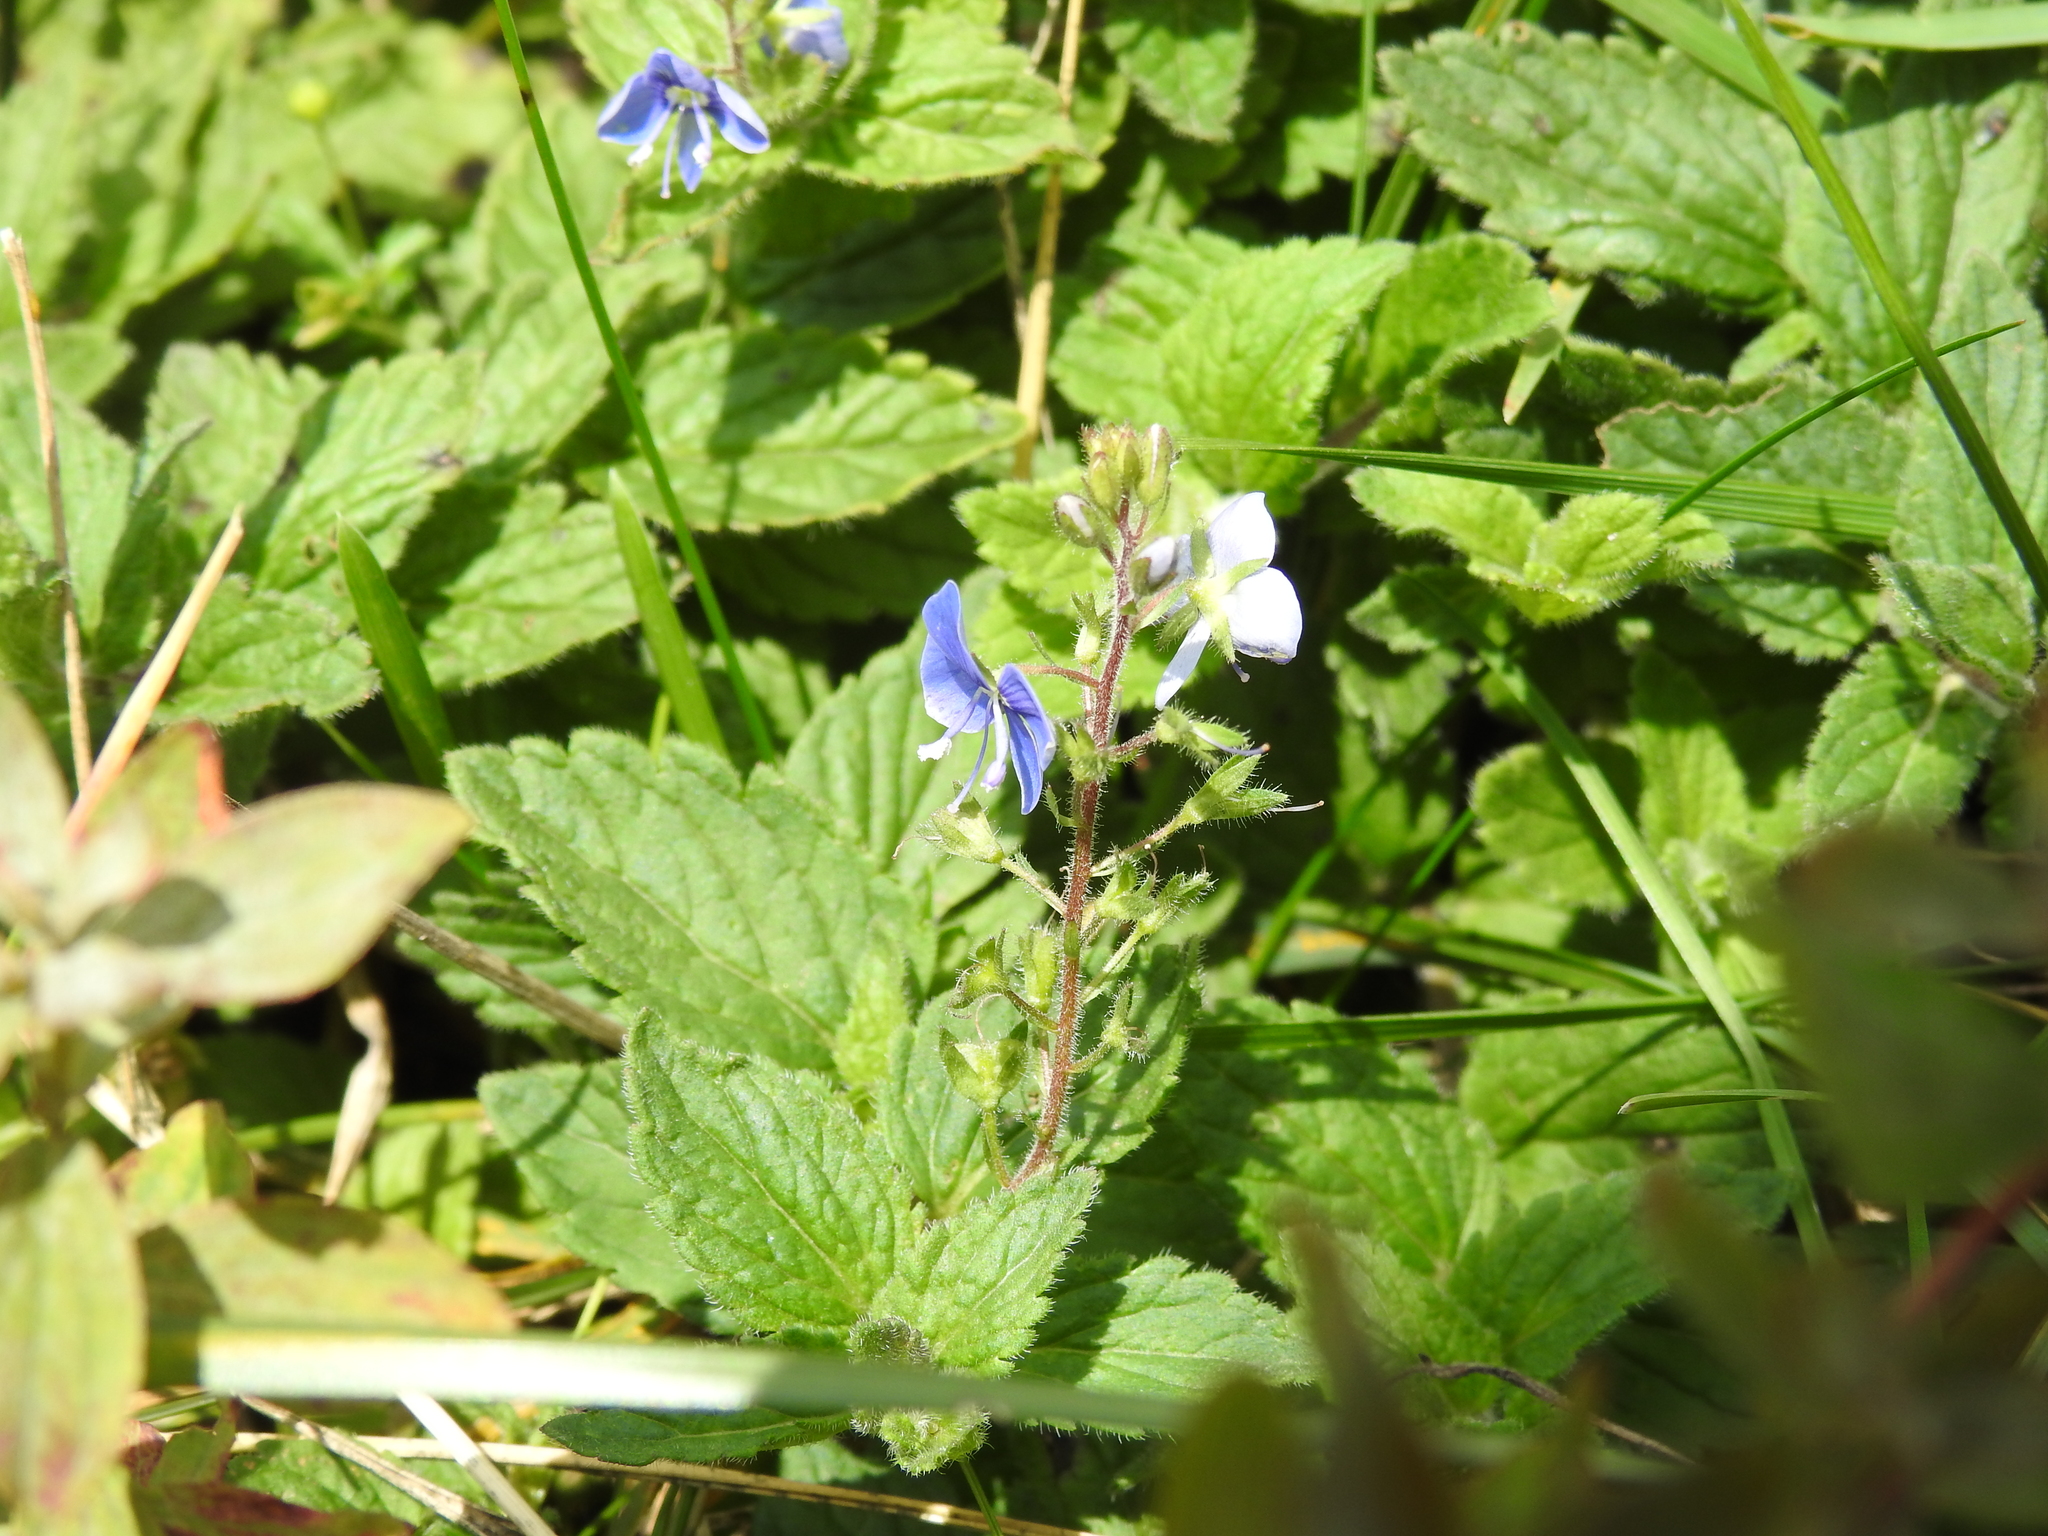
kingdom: Plantae
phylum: Tracheophyta
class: Magnoliopsida
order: Lamiales
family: Plantaginaceae
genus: Veronica
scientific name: Veronica chamaedrys
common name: Germander speedwell
